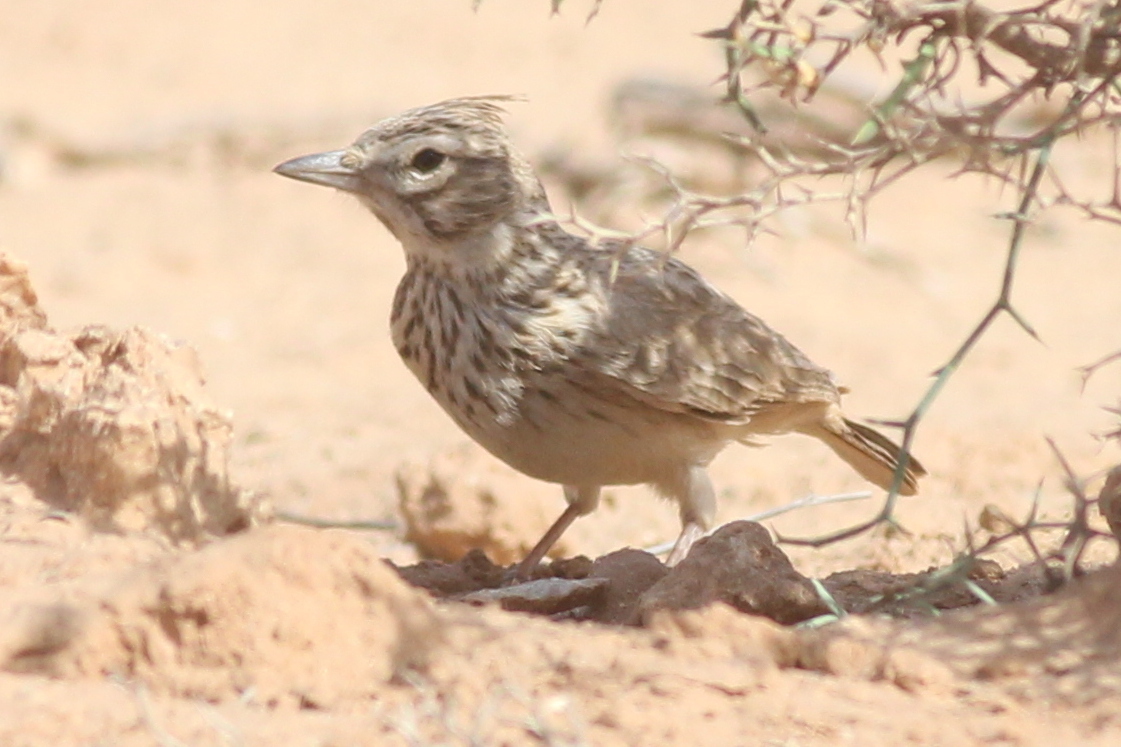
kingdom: Animalia
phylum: Chordata
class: Aves
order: Passeriformes
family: Alaudidae
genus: Galerida
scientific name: Galerida theklae
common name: Thekla lark
